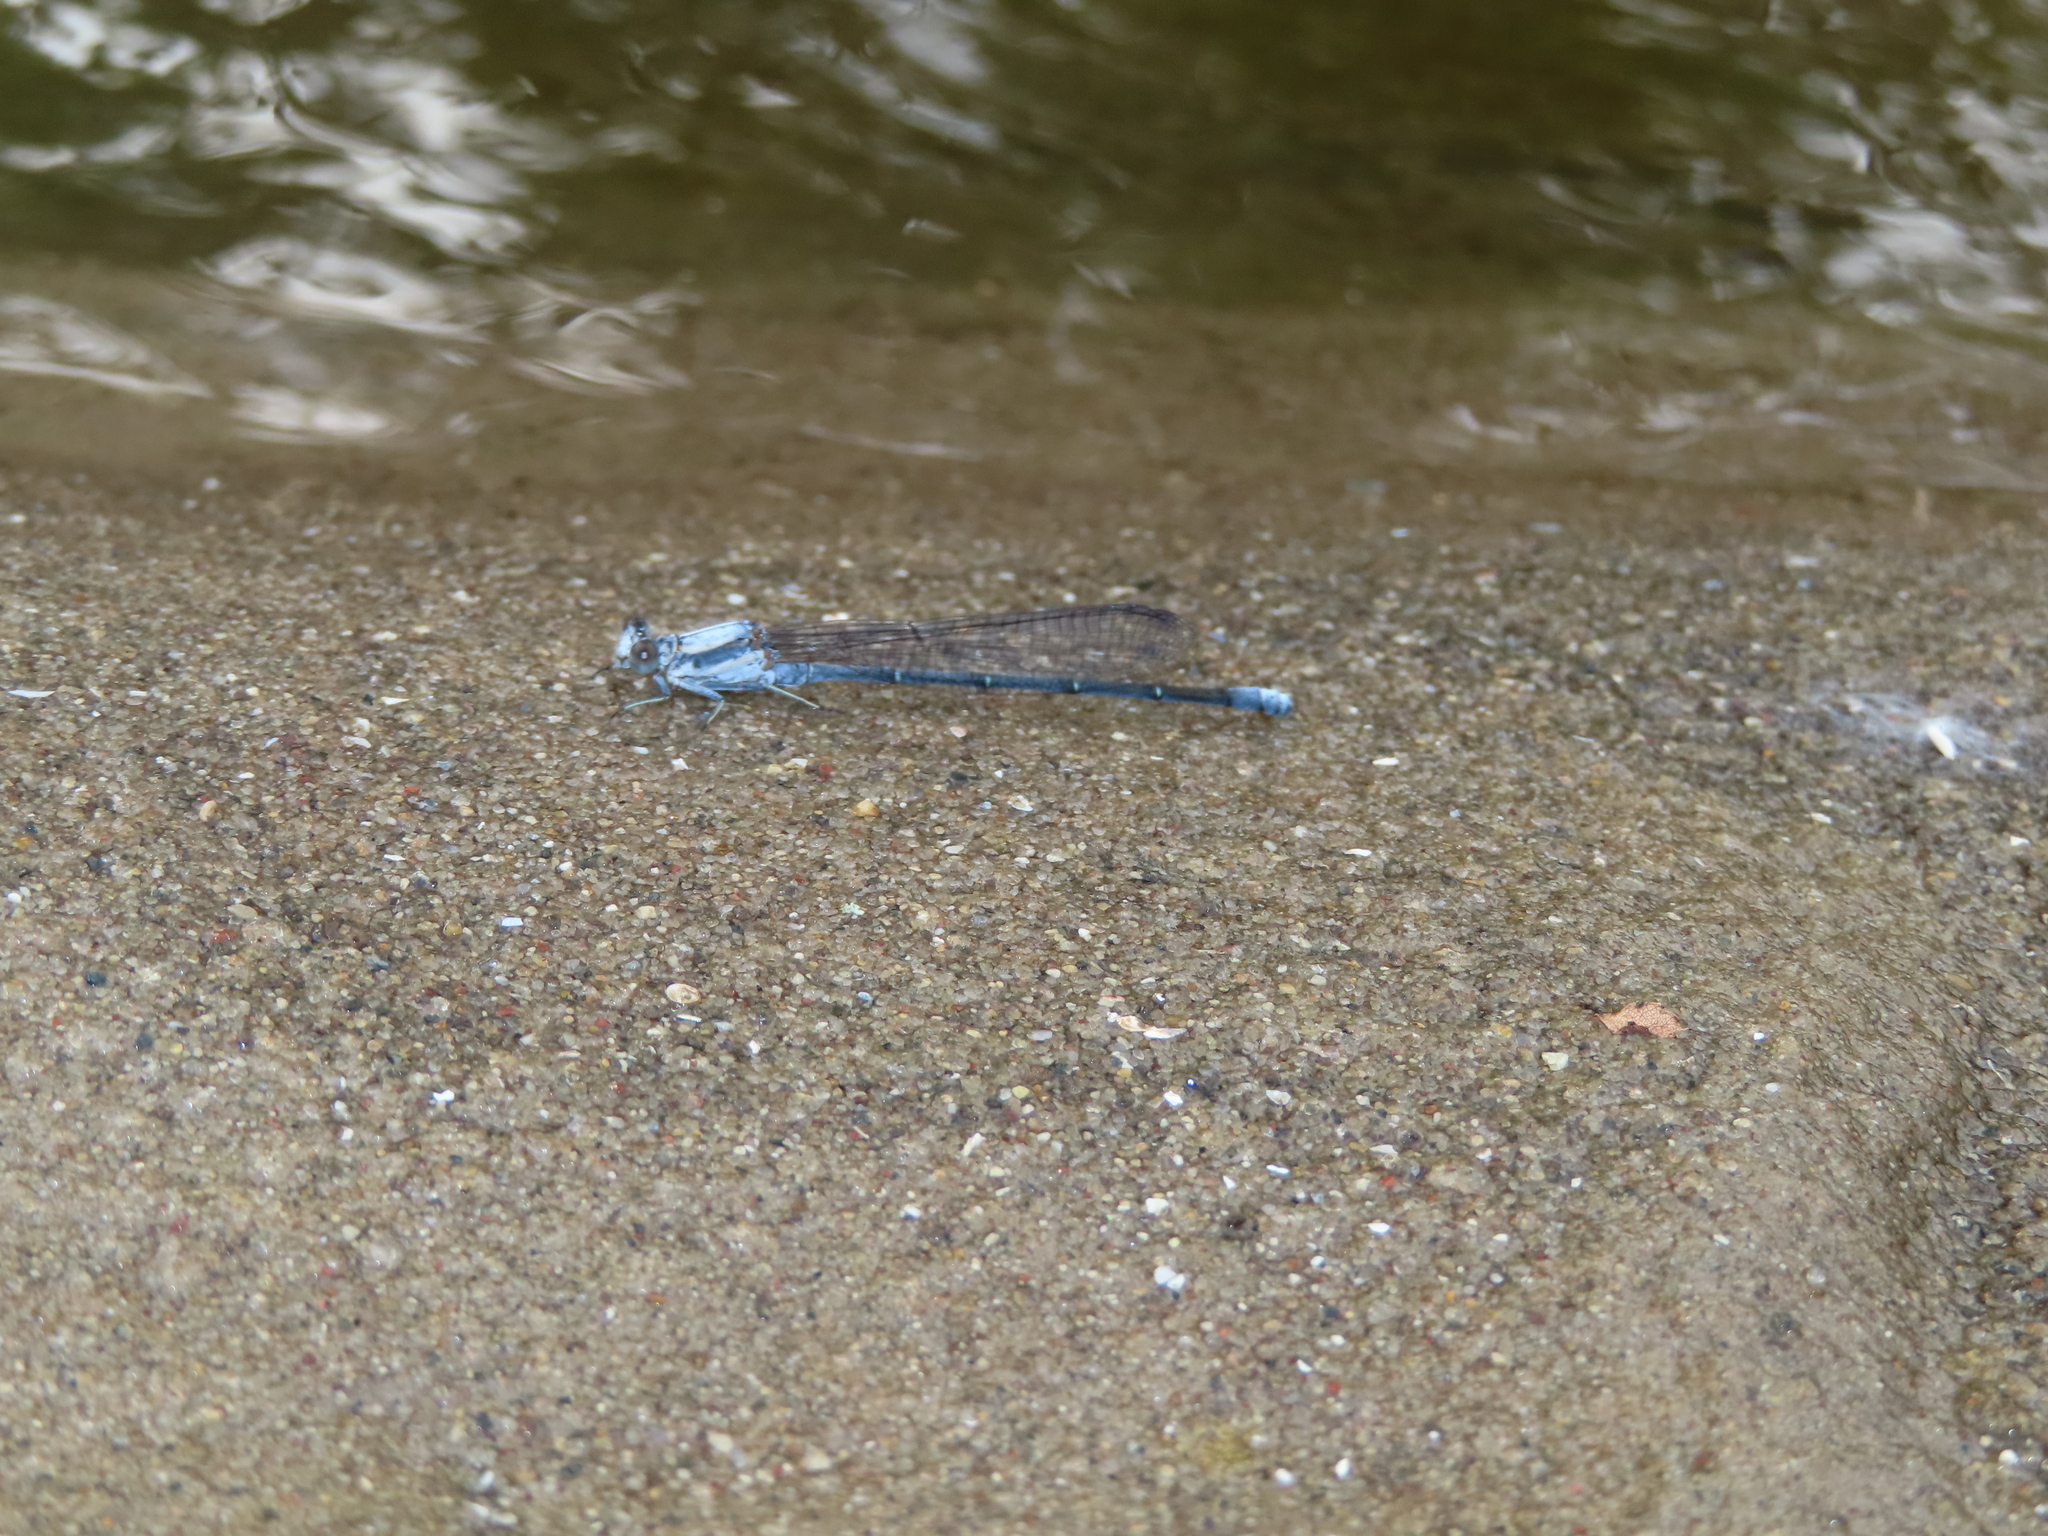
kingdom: Animalia
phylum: Arthropoda
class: Insecta
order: Odonata
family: Coenagrionidae
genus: Argia
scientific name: Argia moesta
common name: Powdered dancer
